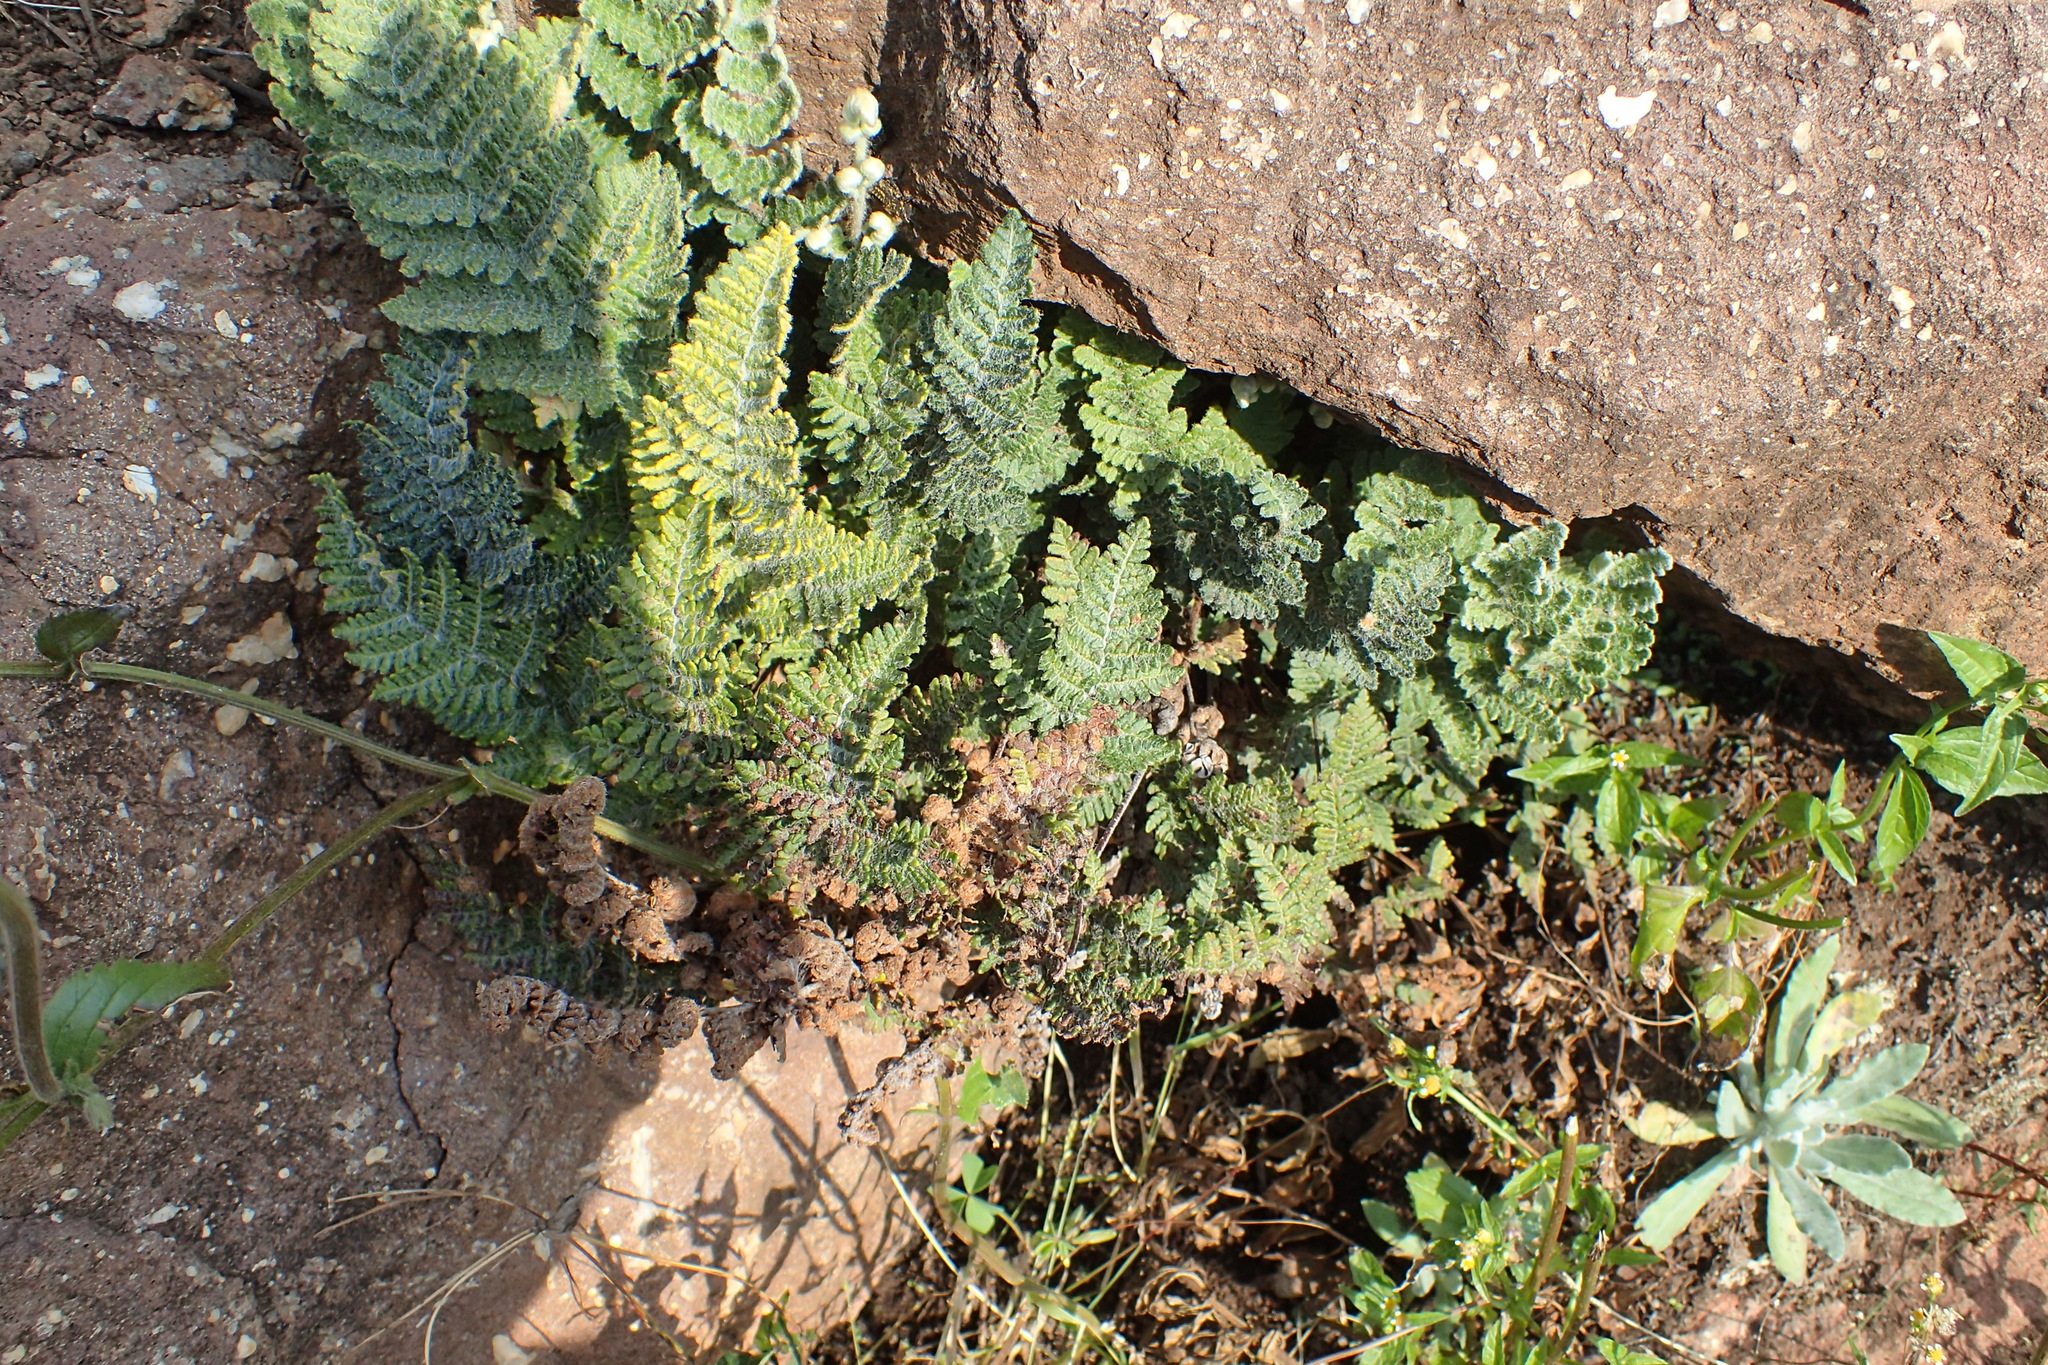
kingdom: Plantae
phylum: Tracheophyta
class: Polypodiopsida
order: Polypodiales
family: Pteridaceae
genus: Cheilanthes
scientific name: Cheilanthes eckloniana
